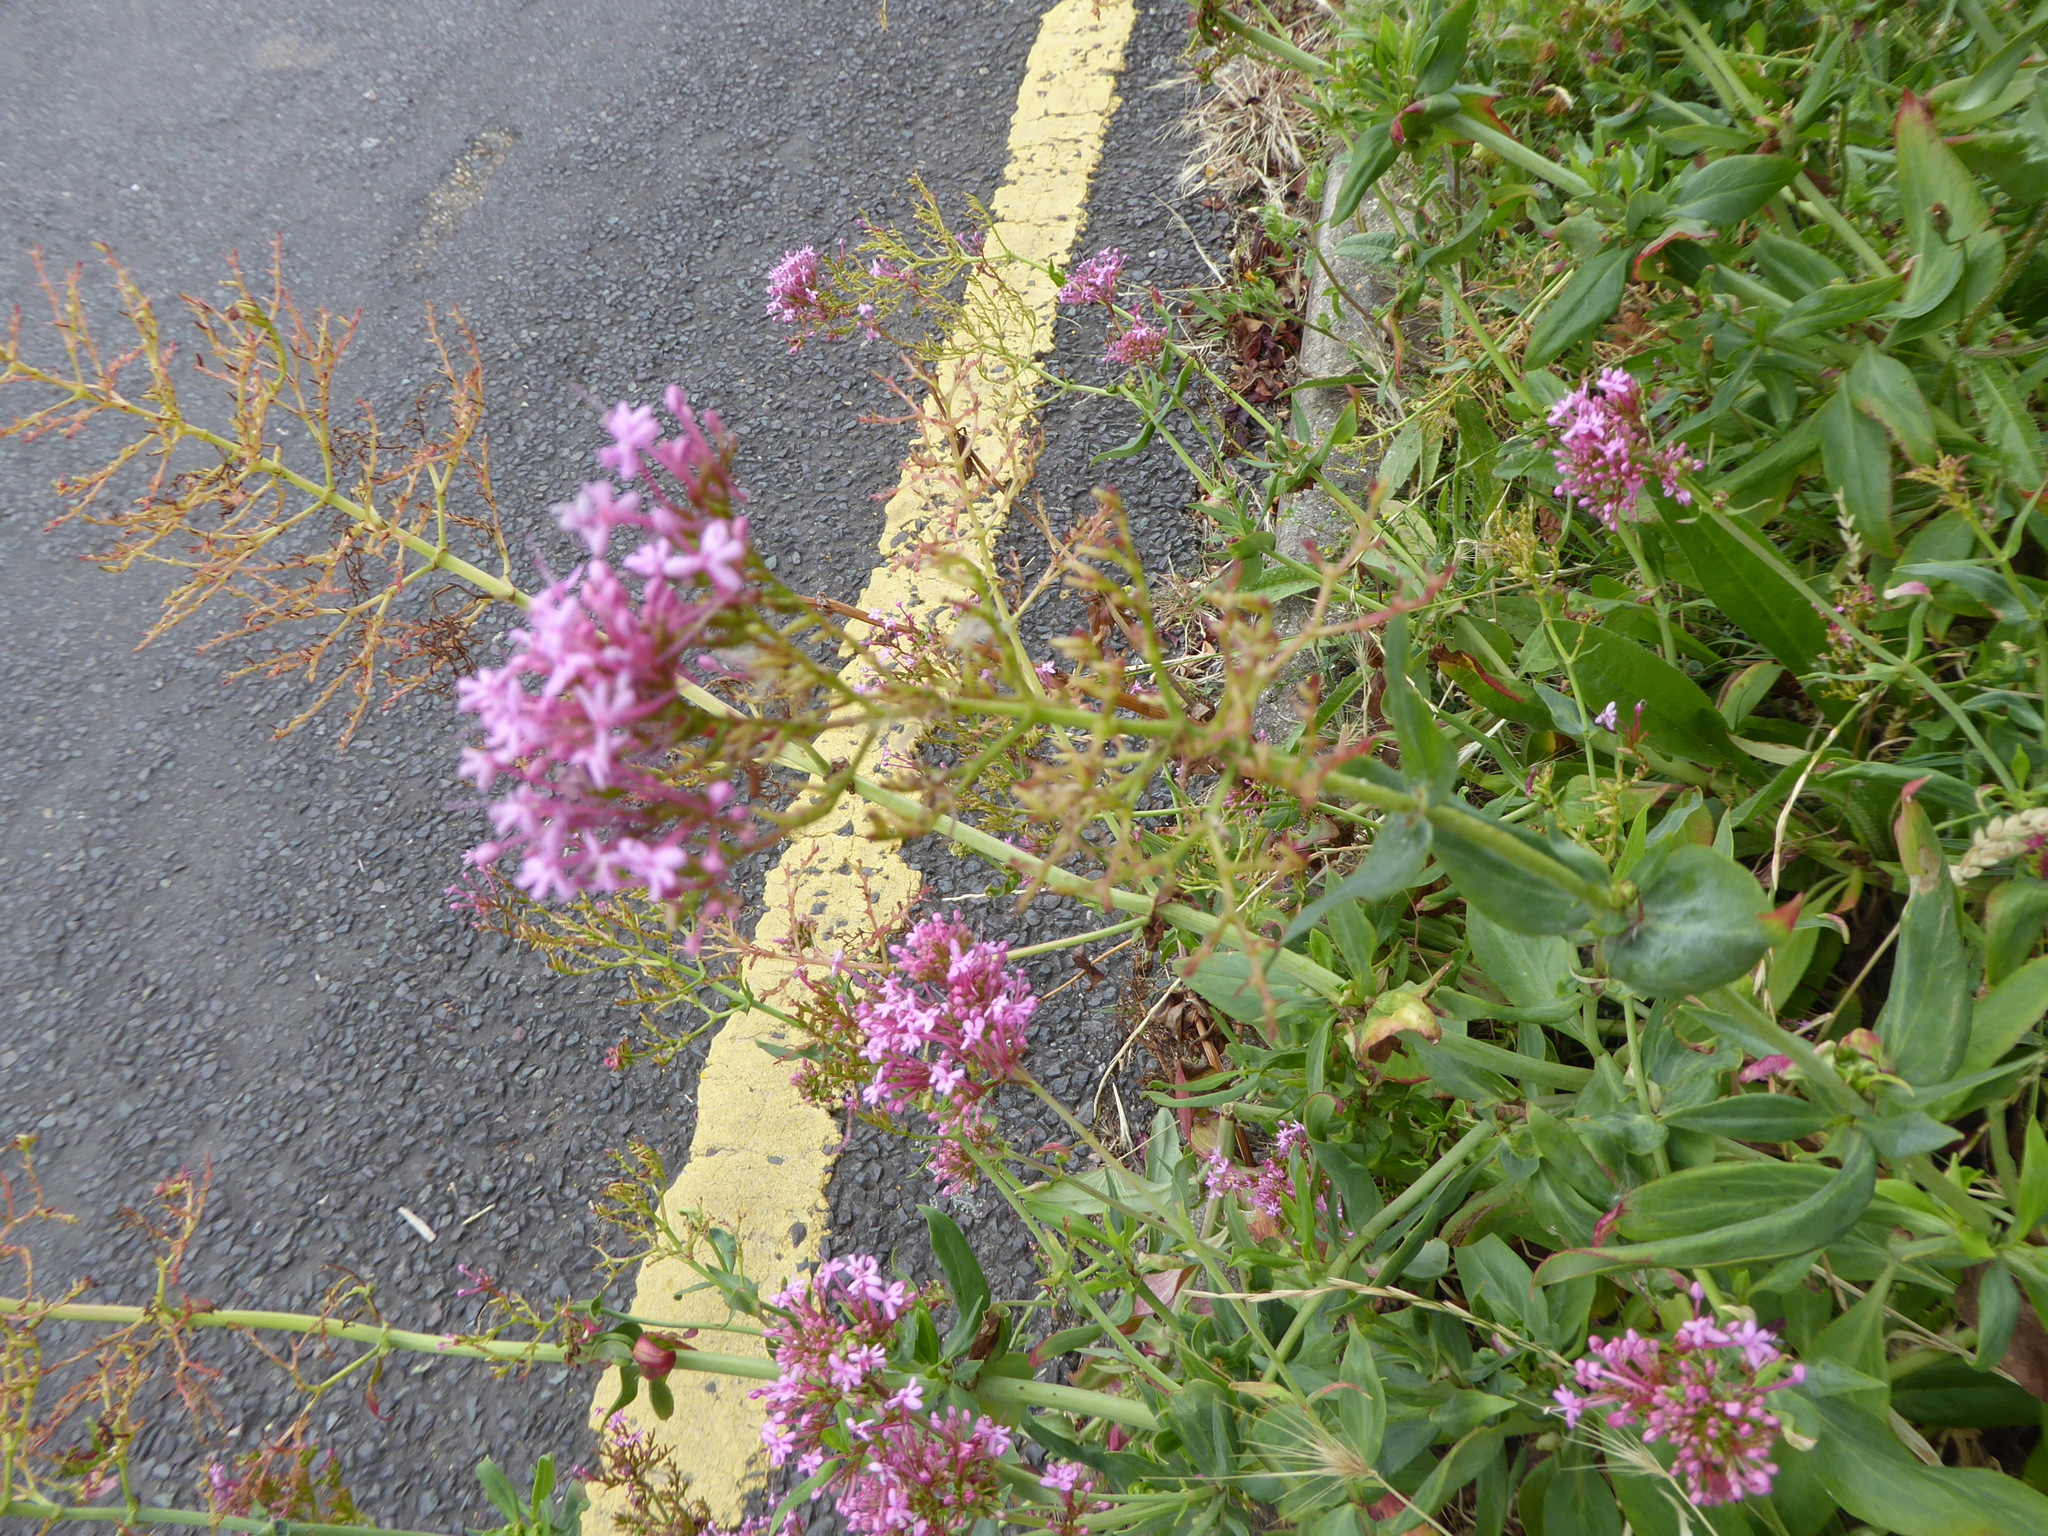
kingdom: Plantae
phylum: Tracheophyta
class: Magnoliopsida
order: Dipsacales
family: Caprifoliaceae
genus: Centranthus
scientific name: Centranthus ruber
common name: Red valerian
